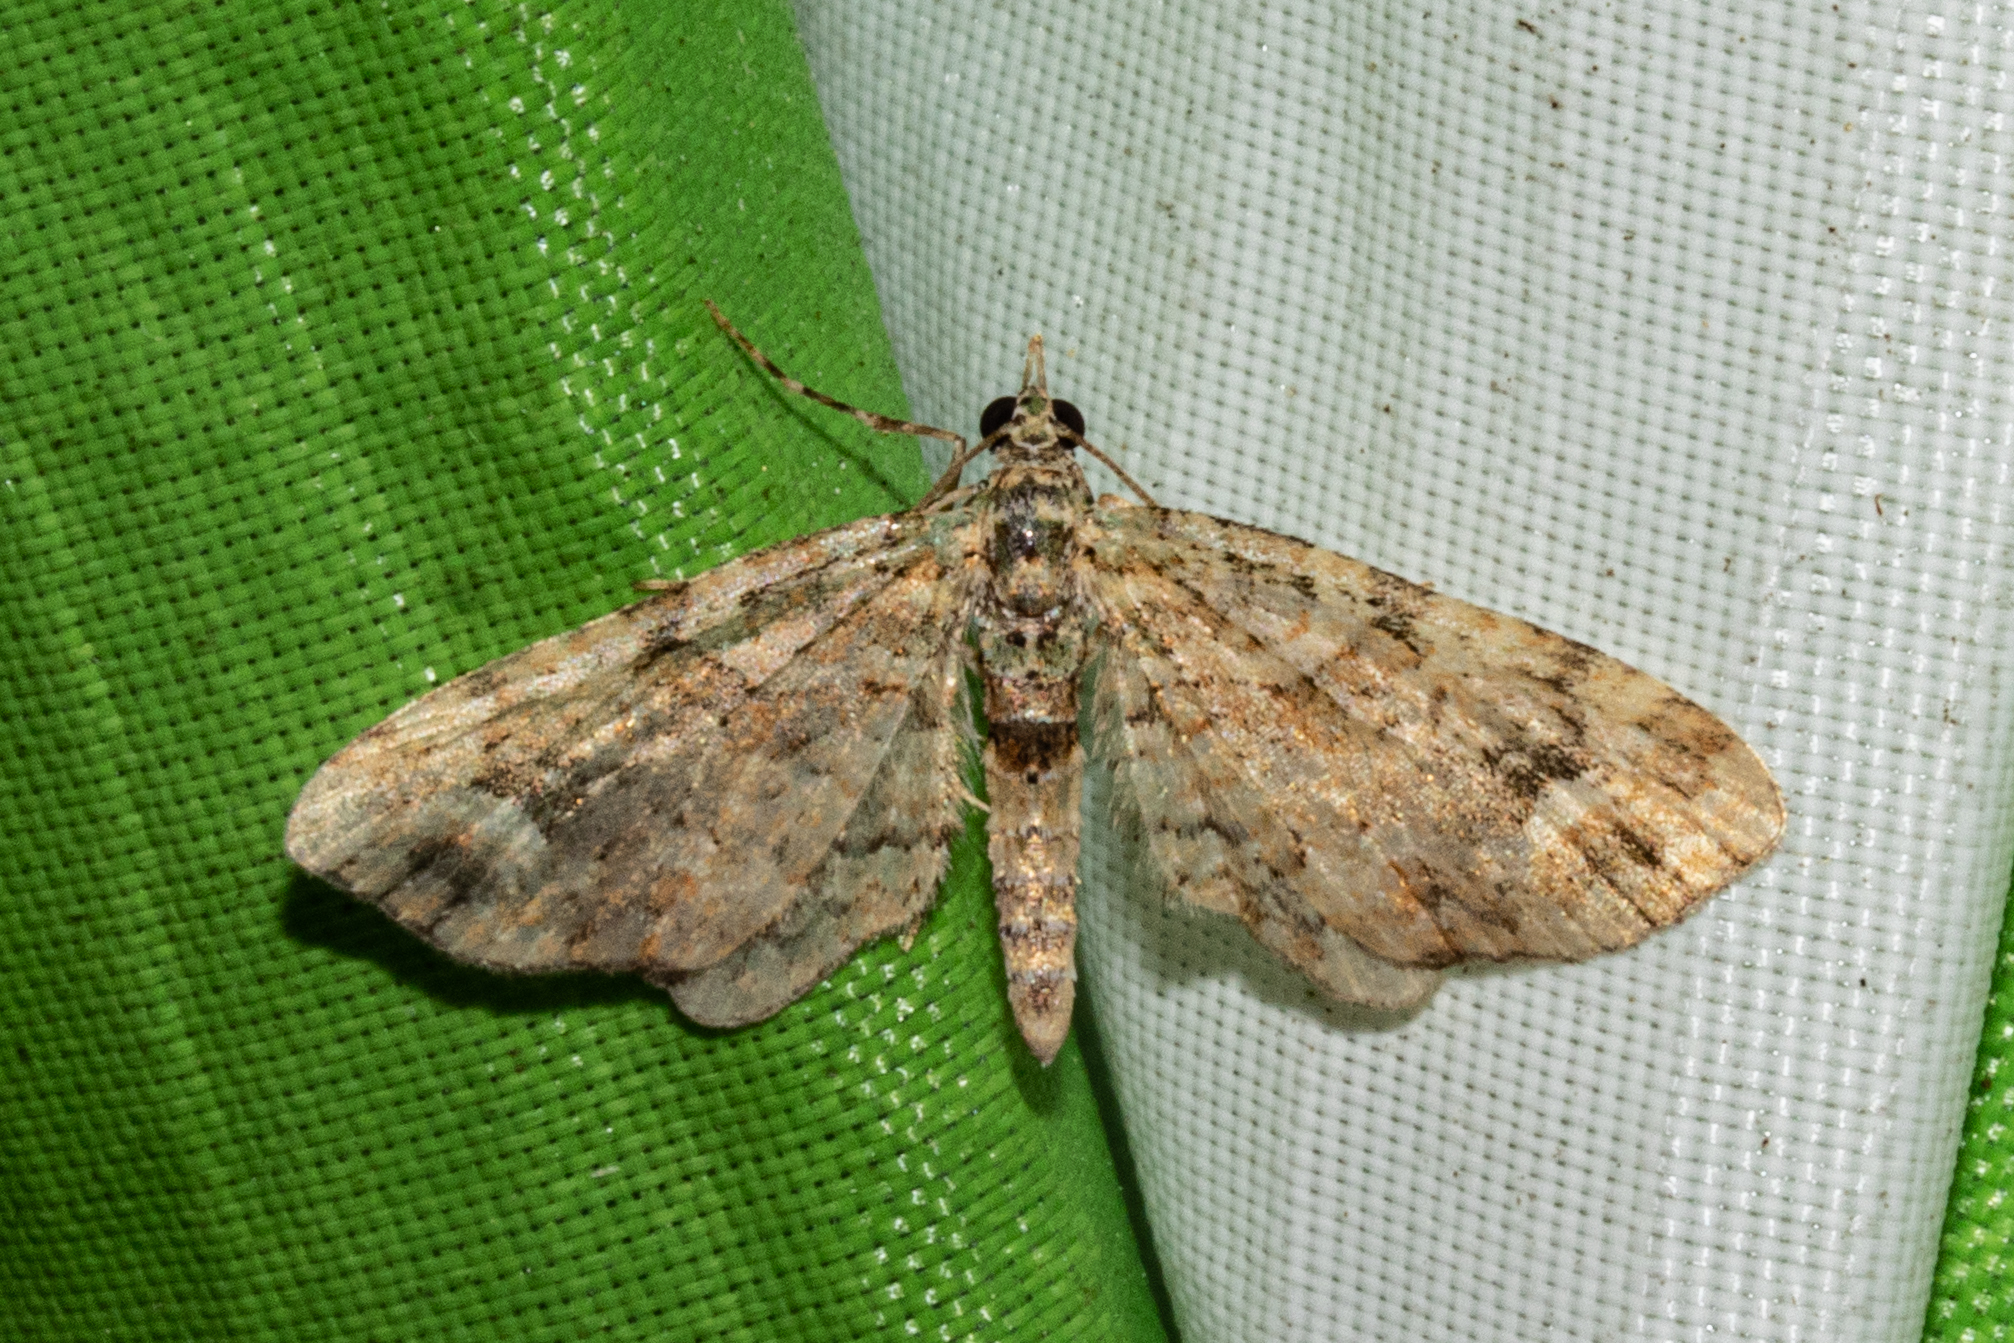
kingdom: Animalia
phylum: Arthropoda
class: Insecta
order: Lepidoptera
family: Geometridae
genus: Idaea
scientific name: Idaea mutanda
